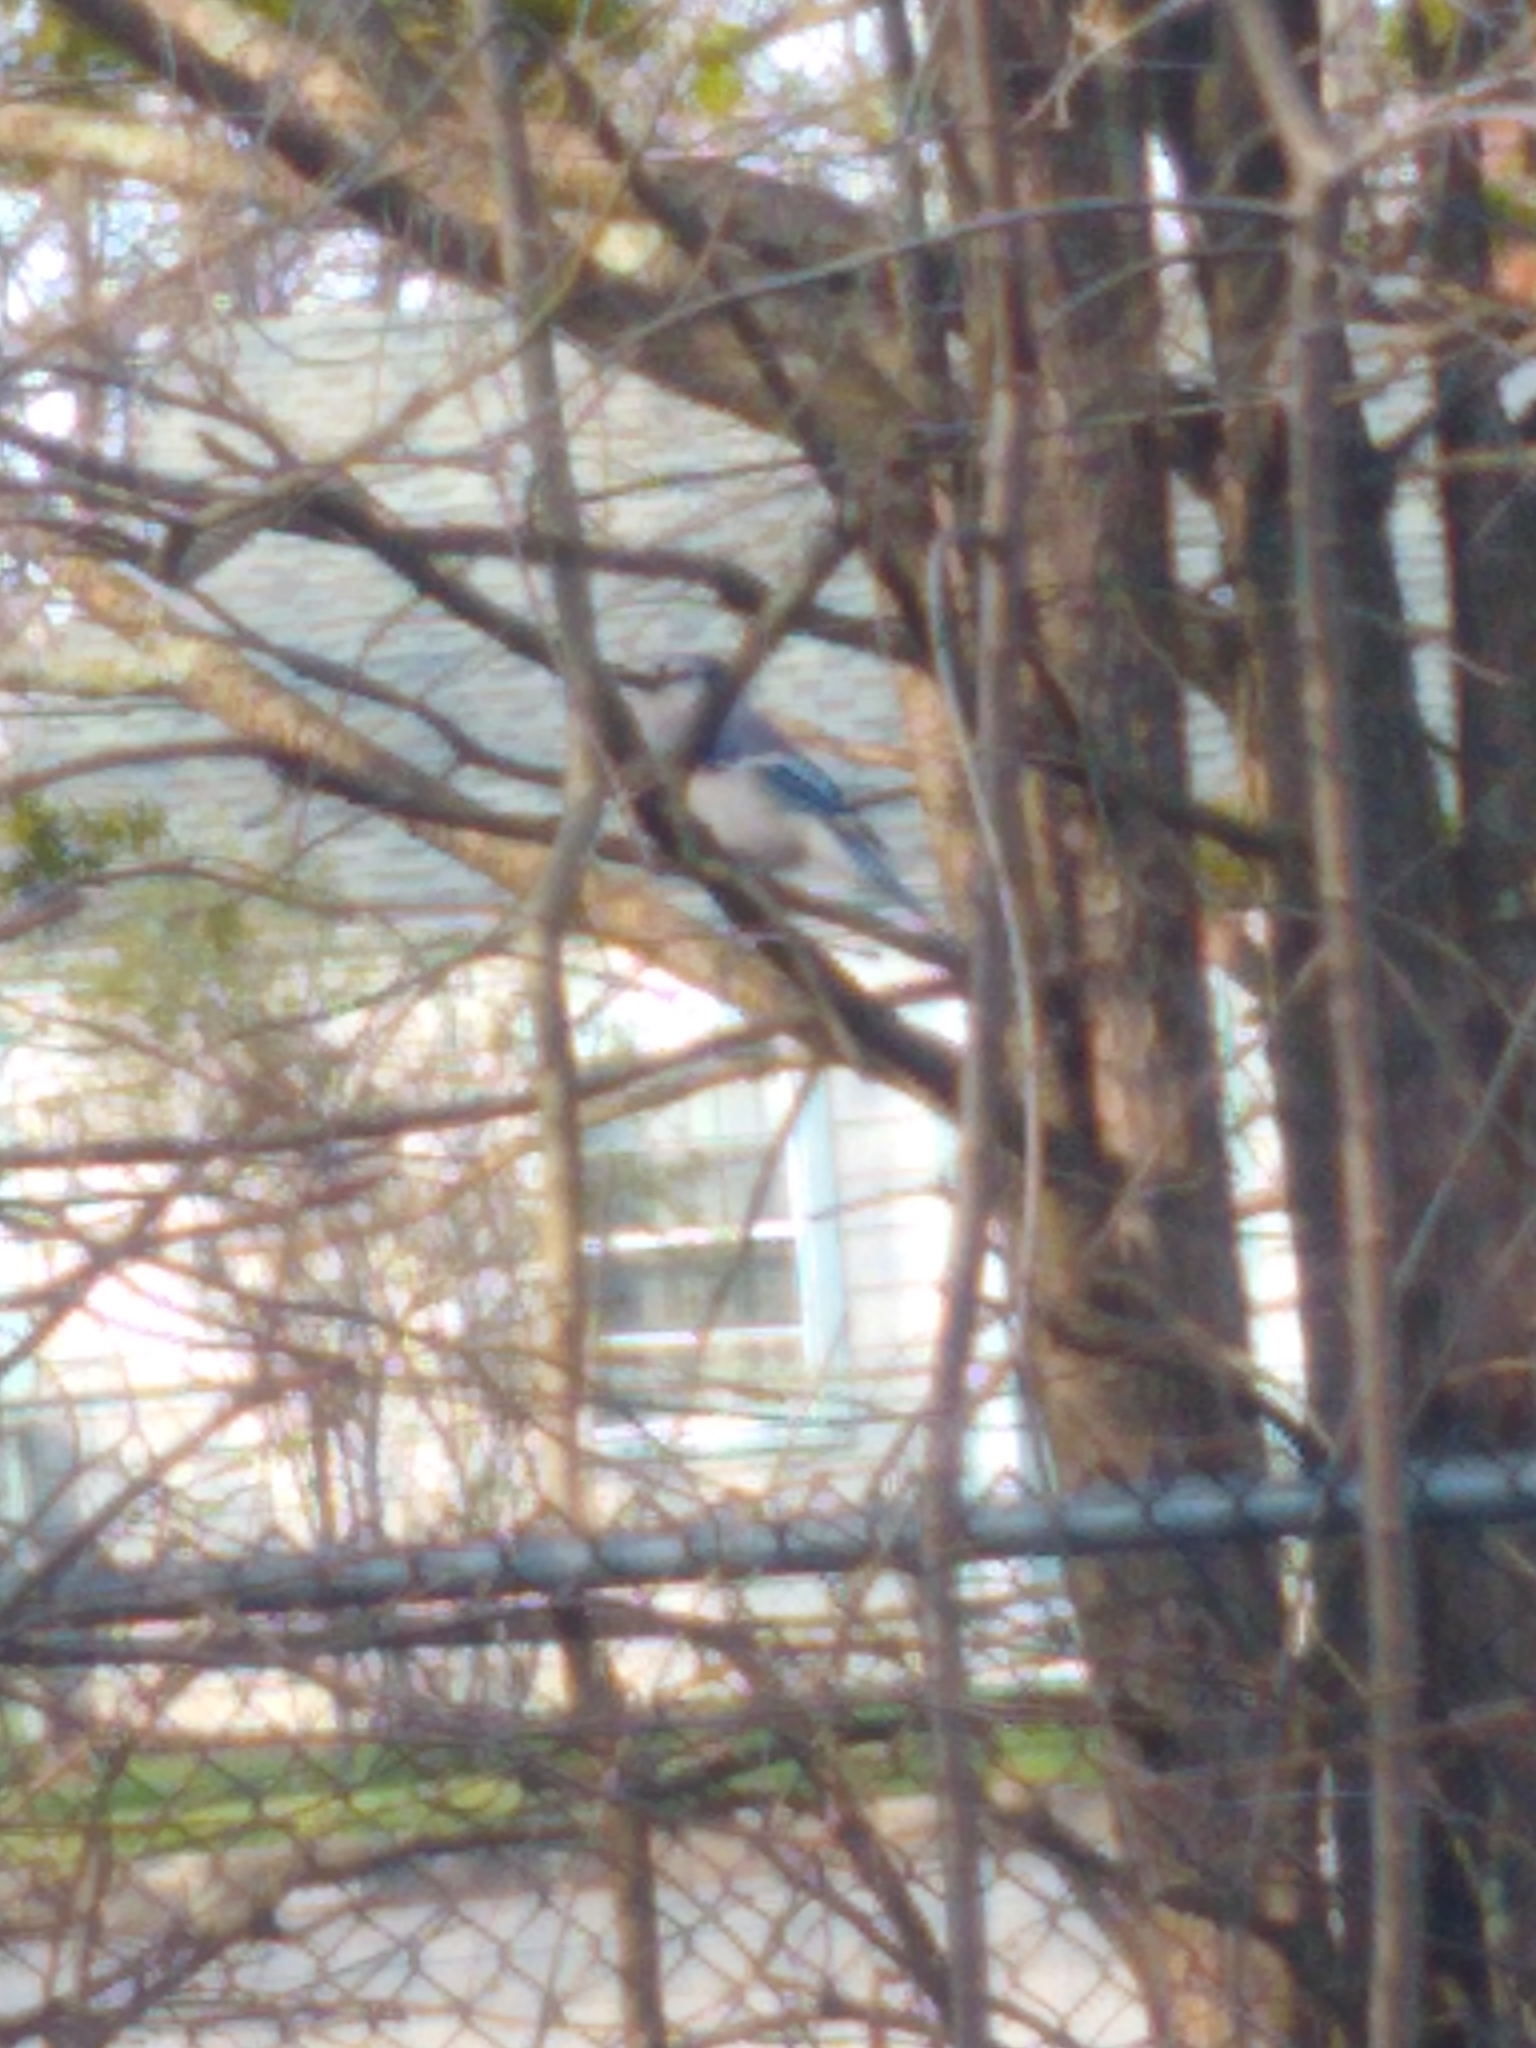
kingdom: Animalia
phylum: Chordata
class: Aves
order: Passeriformes
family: Corvidae
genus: Cyanocitta
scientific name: Cyanocitta cristata
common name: Blue jay
